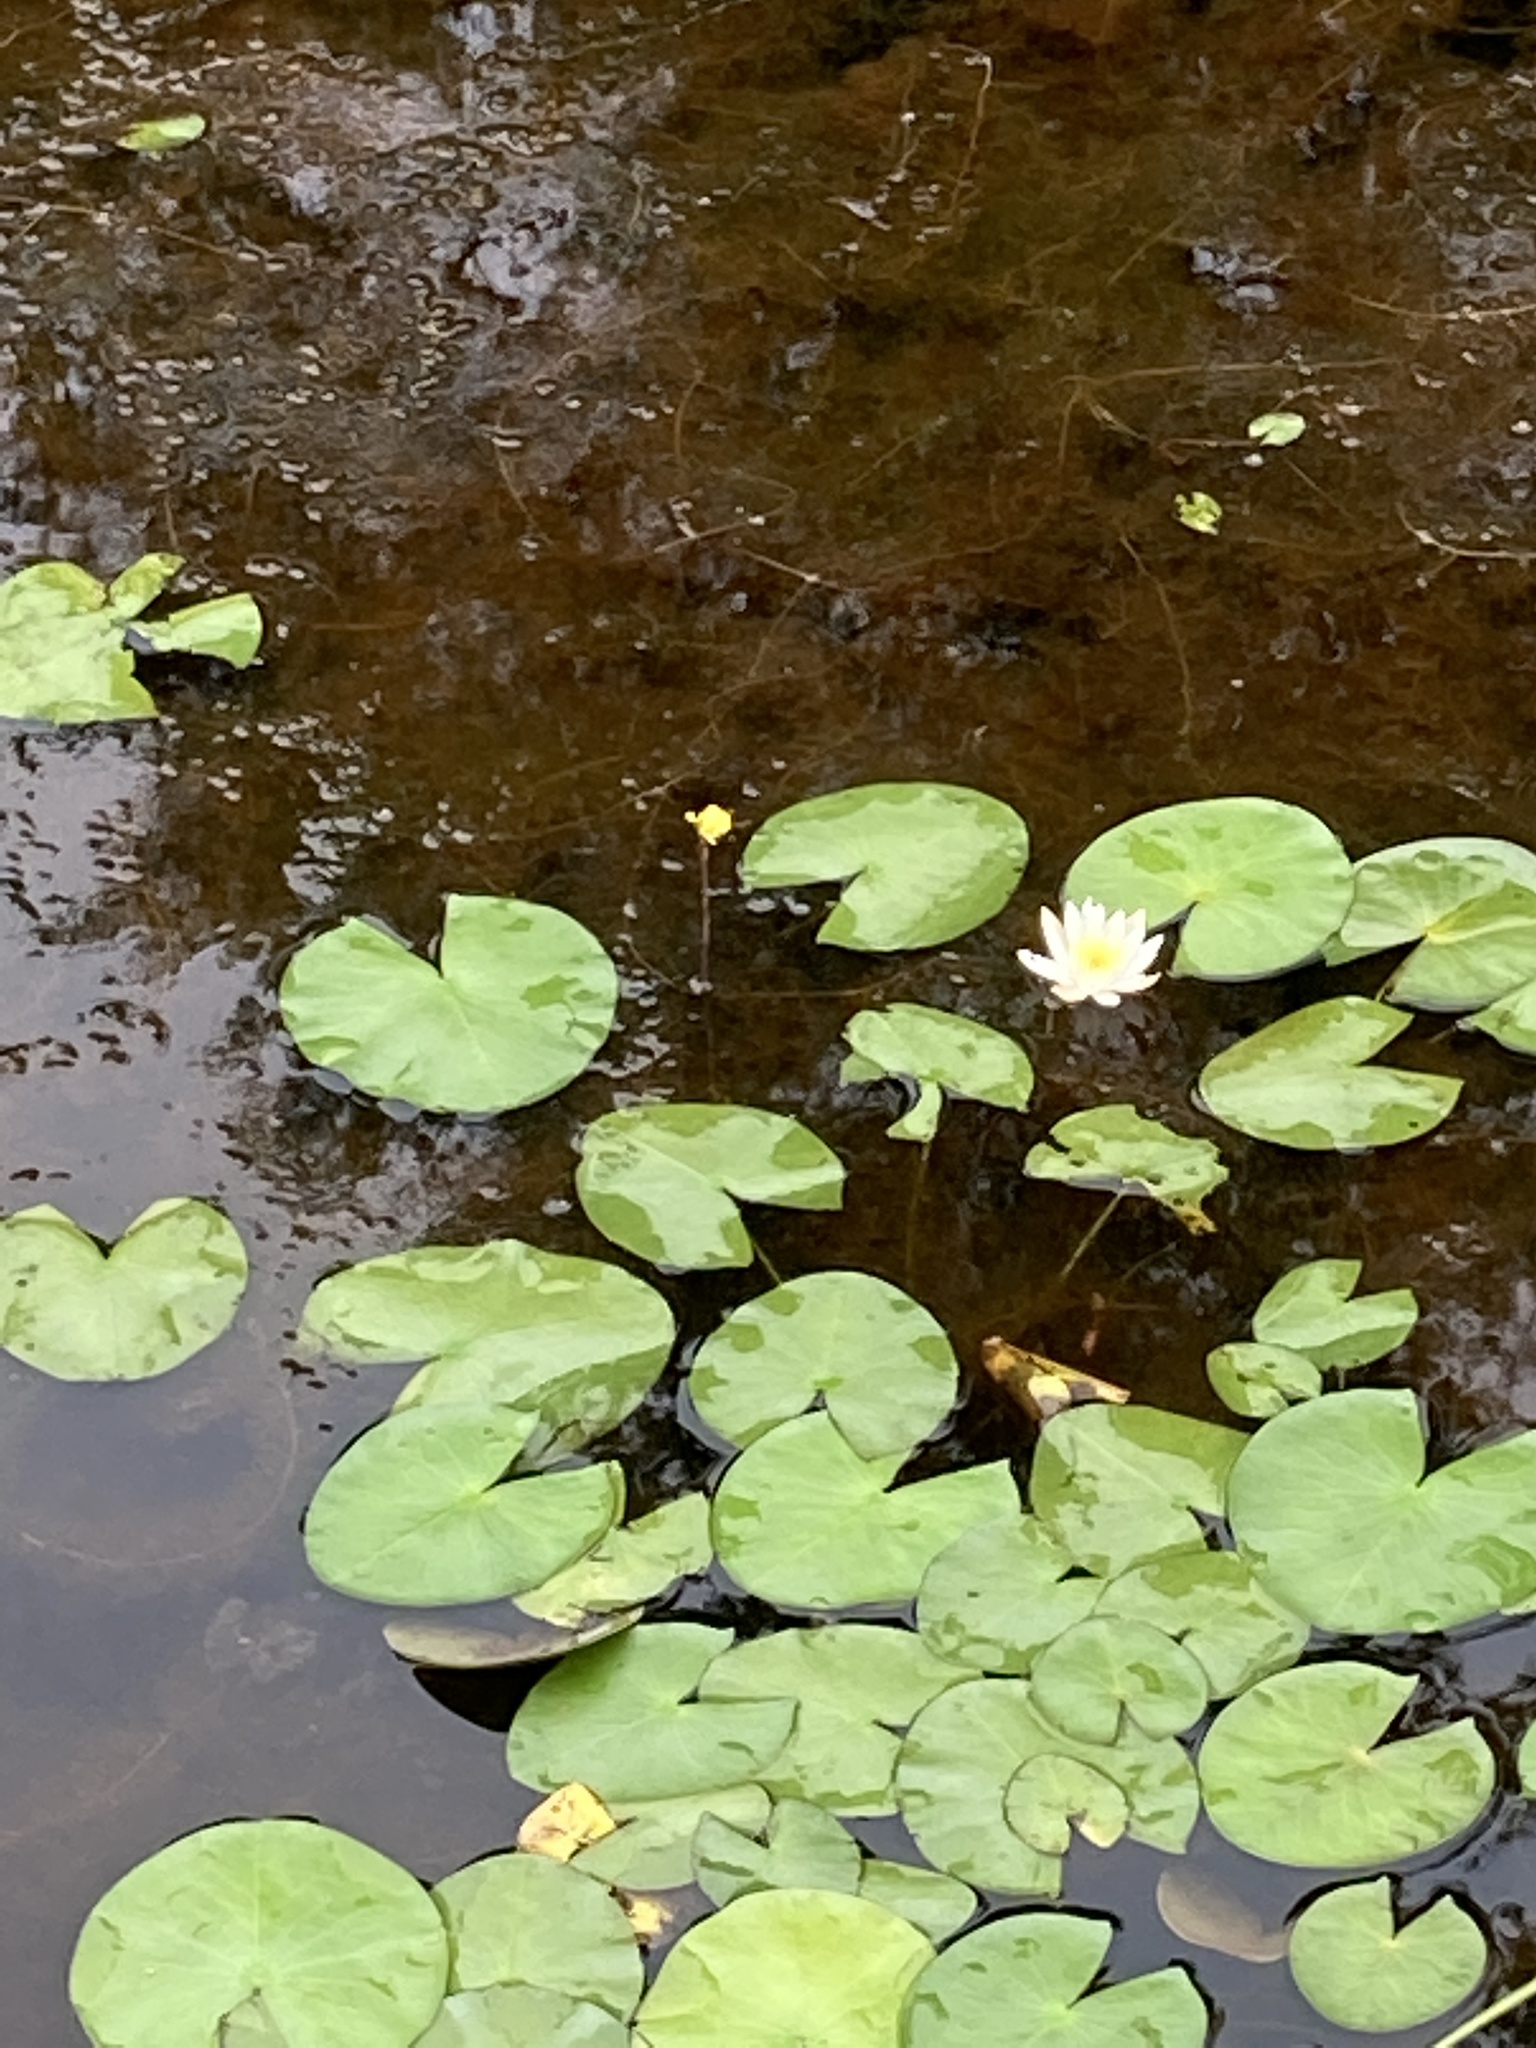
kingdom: Plantae
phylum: Tracheophyta
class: Magnoliopsida
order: Nymphaeales
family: Nymphaeaceae
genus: Nymphaea
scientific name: Nymphaea odorata
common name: Fragrant water-lily
